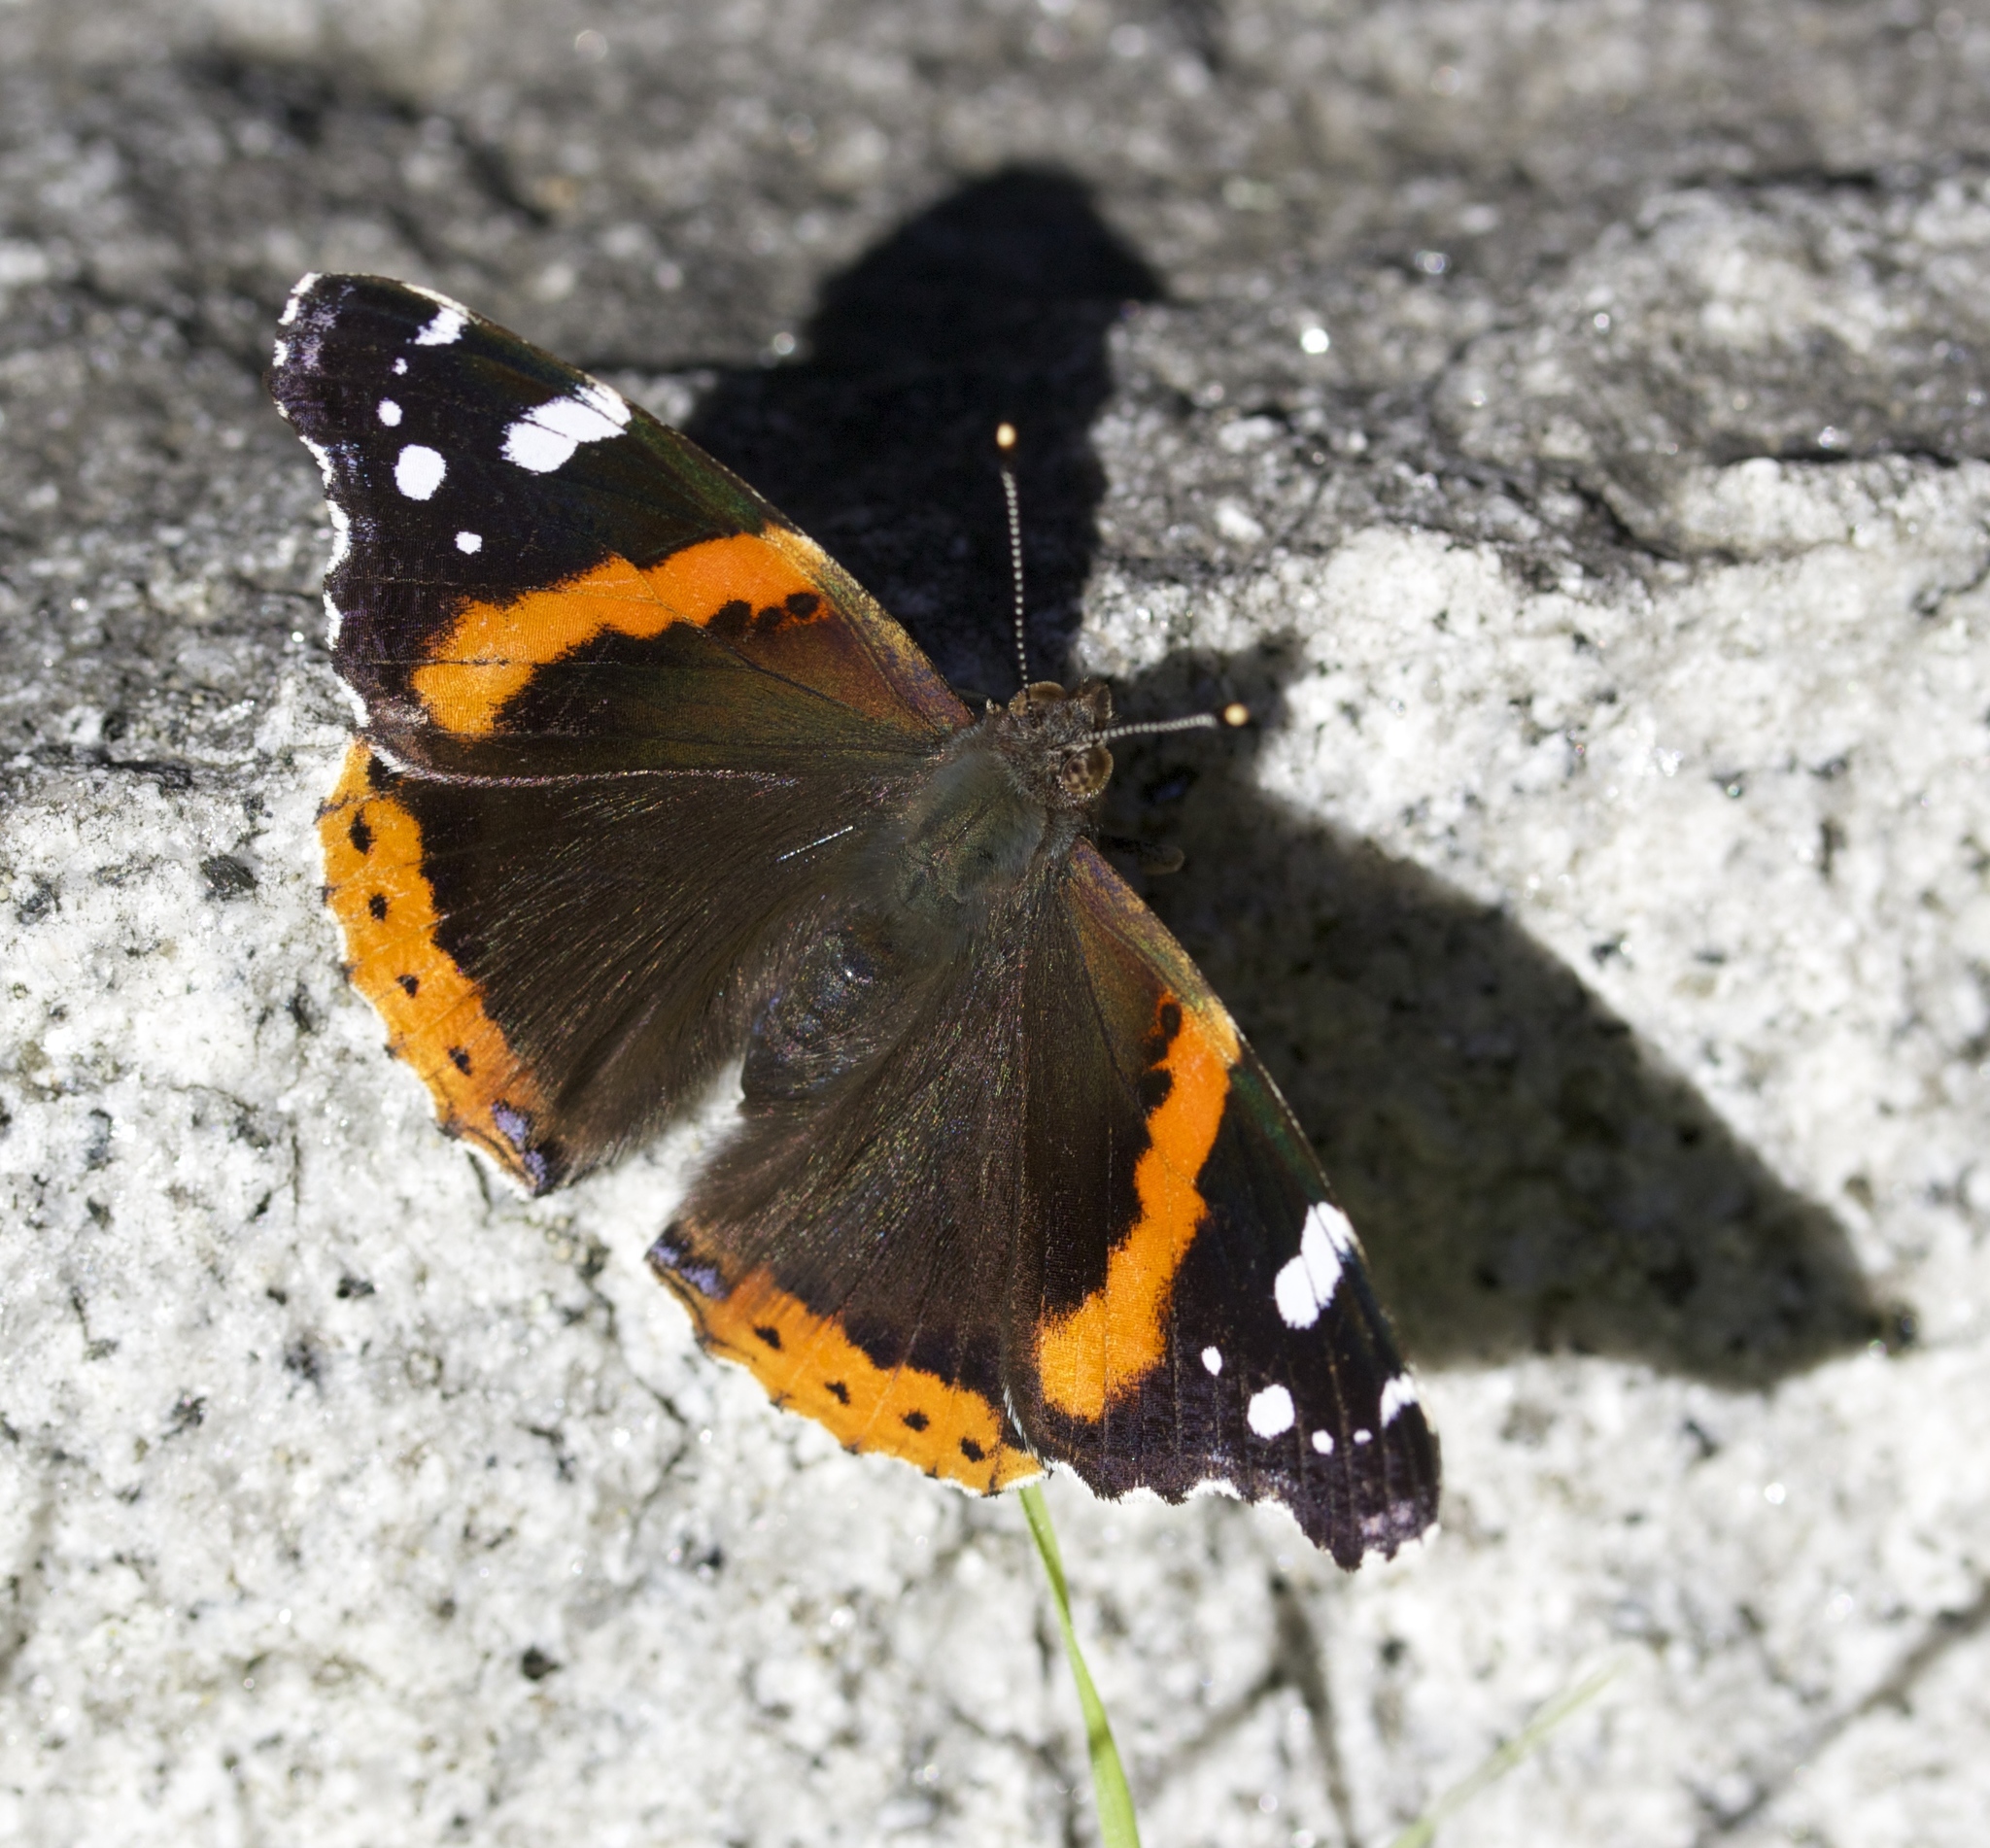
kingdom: Animalia
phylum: Arthropoda
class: Insecta
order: Lepidoptera
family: Nymphalidae
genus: Vanessa
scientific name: Vanessa atalanta
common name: Red admiral
